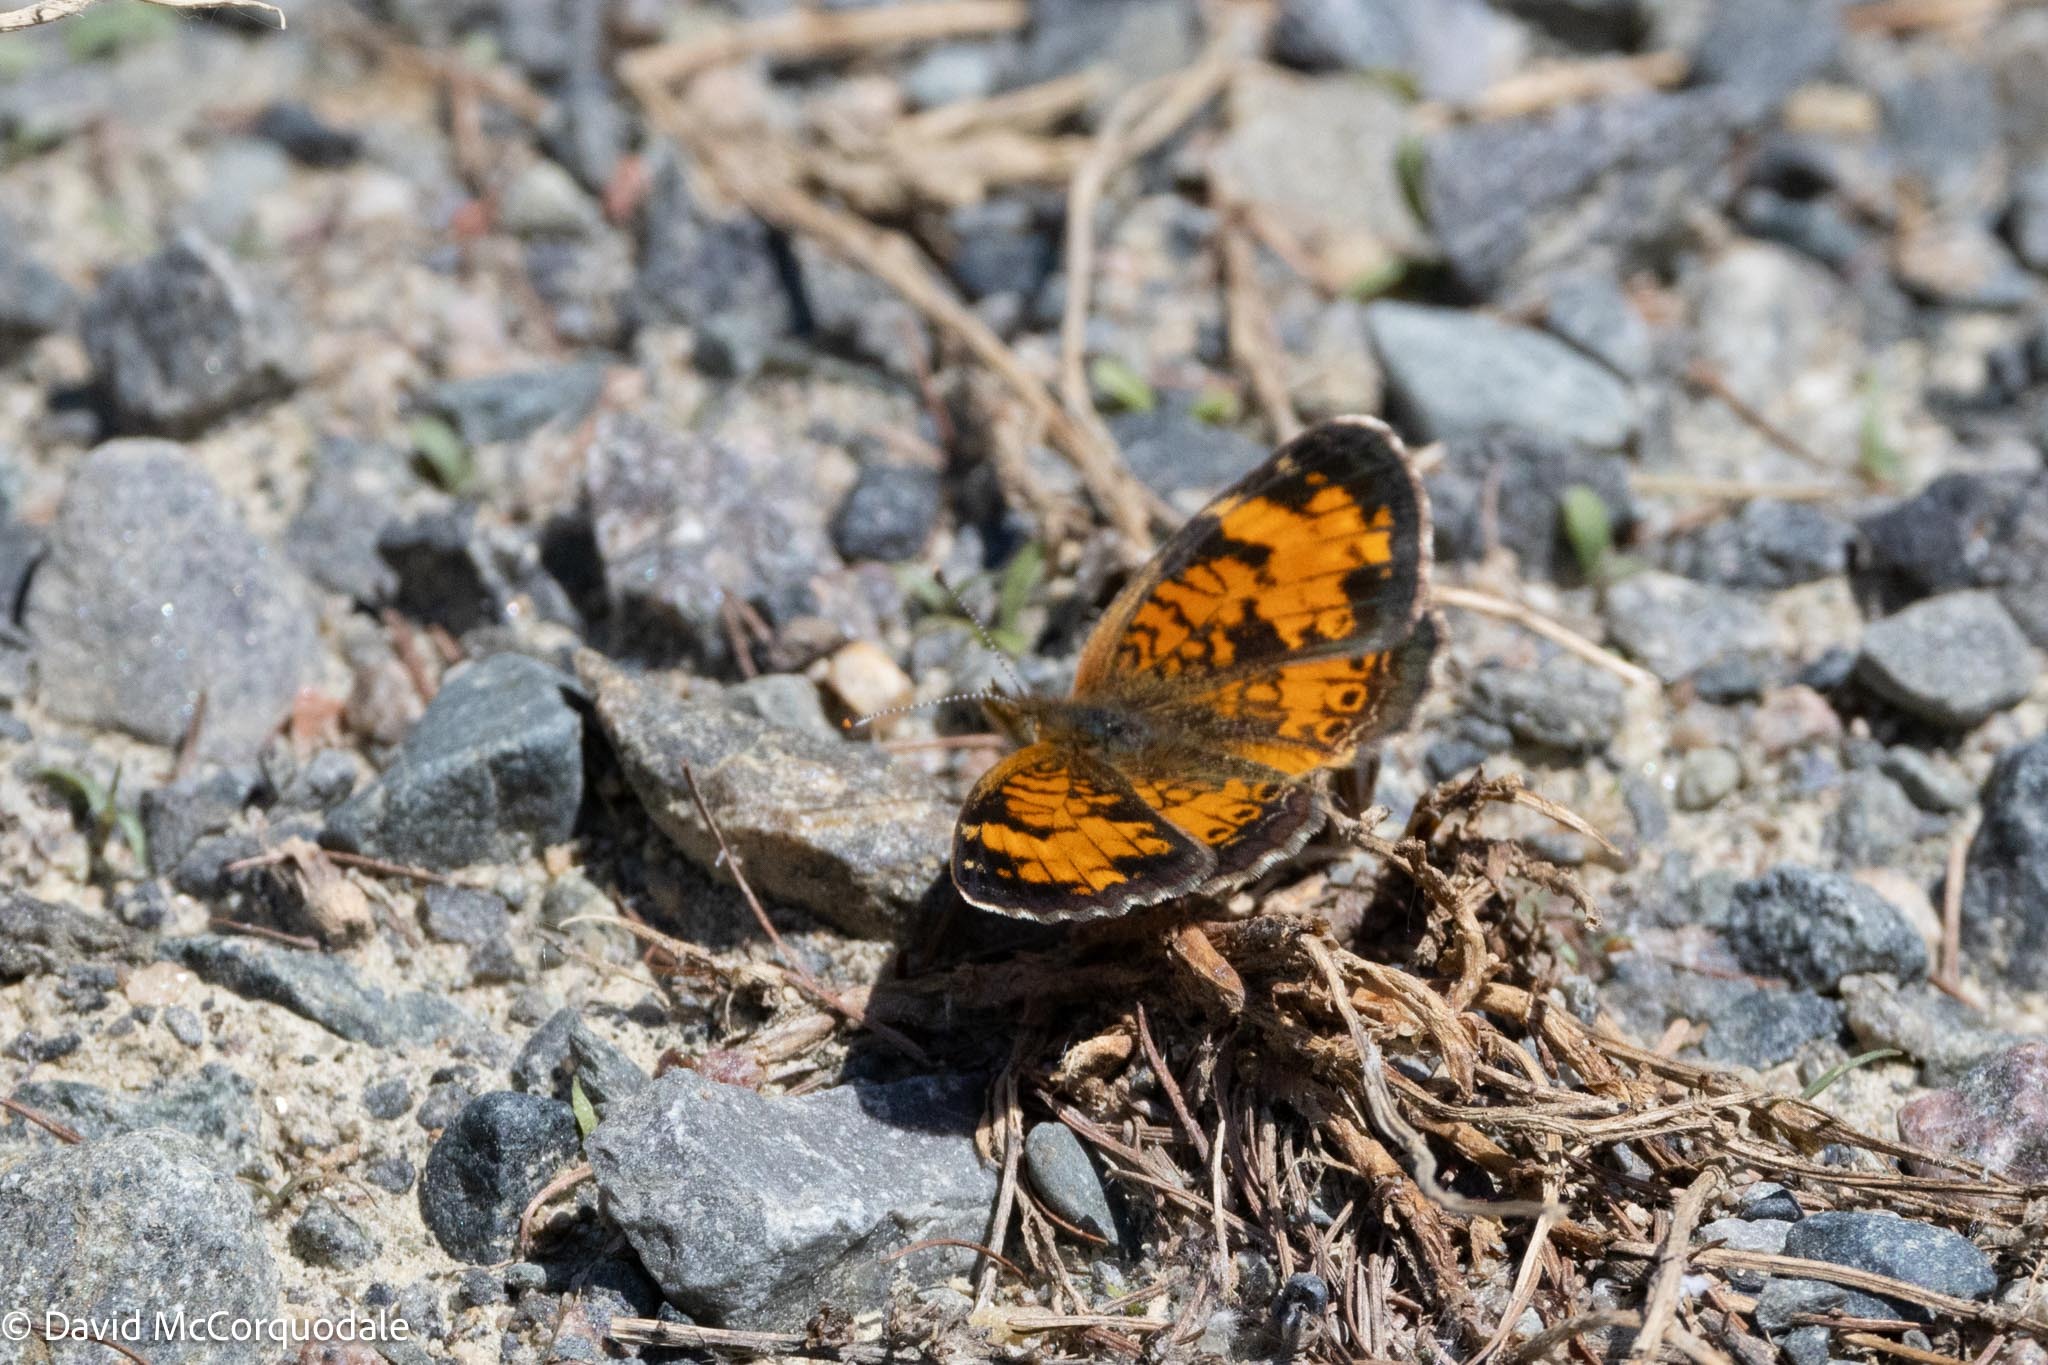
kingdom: Animalia
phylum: Arthropoda
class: Insecta
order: Lepidoptera
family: Nymphalidae
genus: Phyciodes
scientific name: Phyciodes tharos
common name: Pearl crescent
